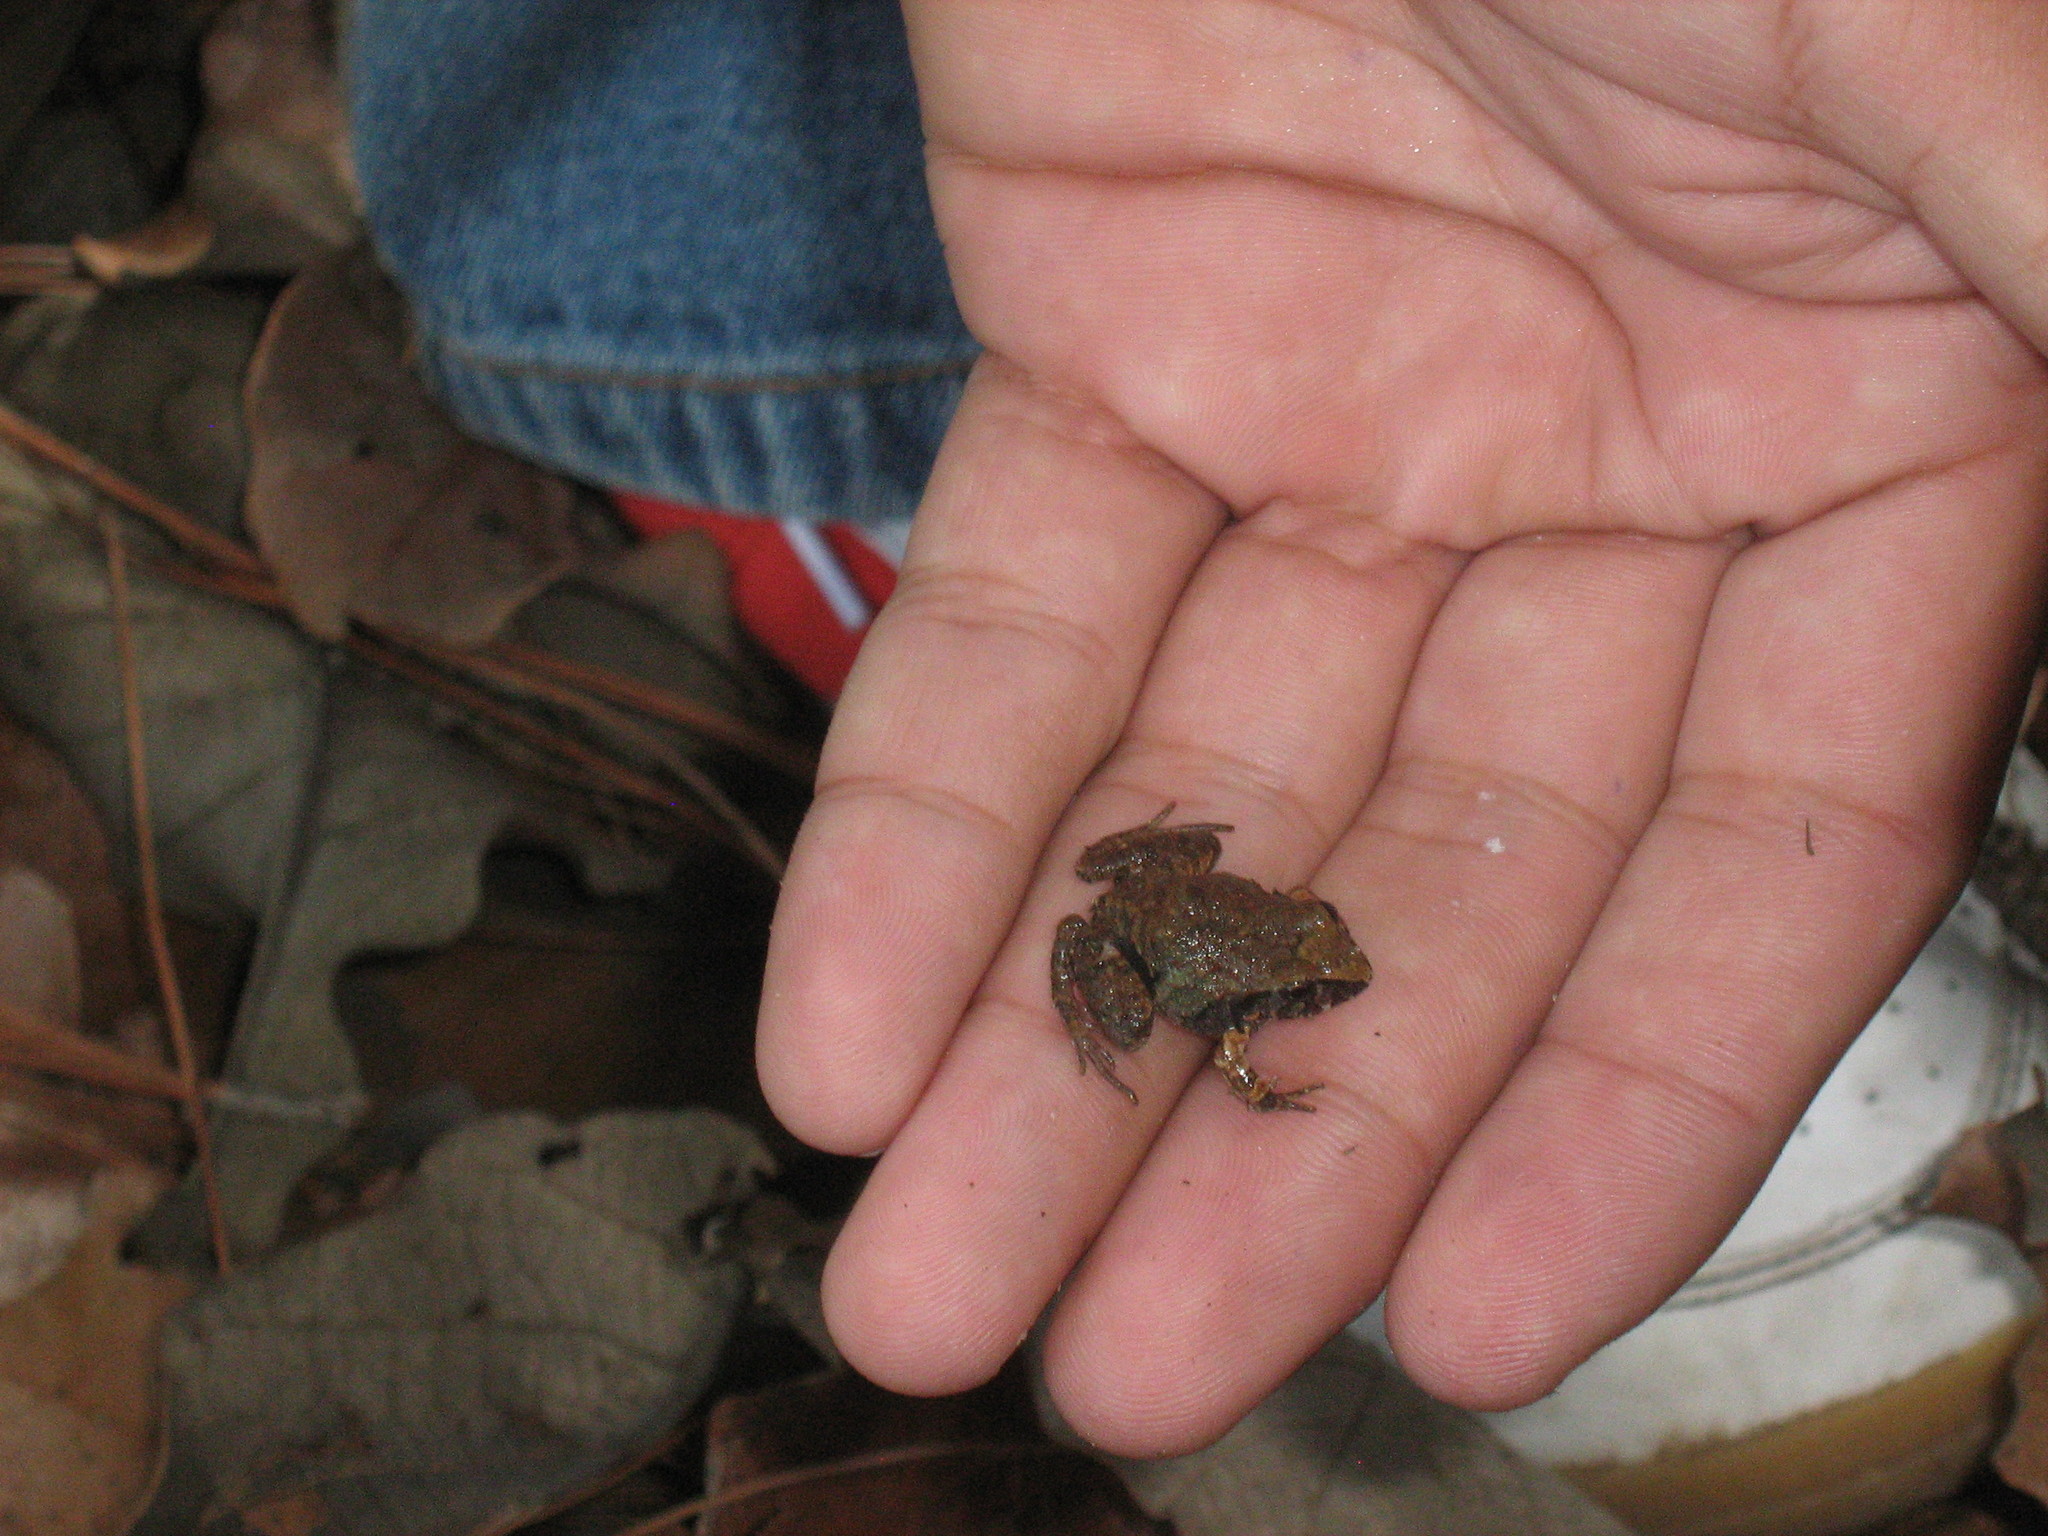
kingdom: Animalia
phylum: Chordata
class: Amphibia
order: Anura
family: Craugastoridae
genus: Craugastor
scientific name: Craugastor occidentalis
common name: Taylor's barking frog
